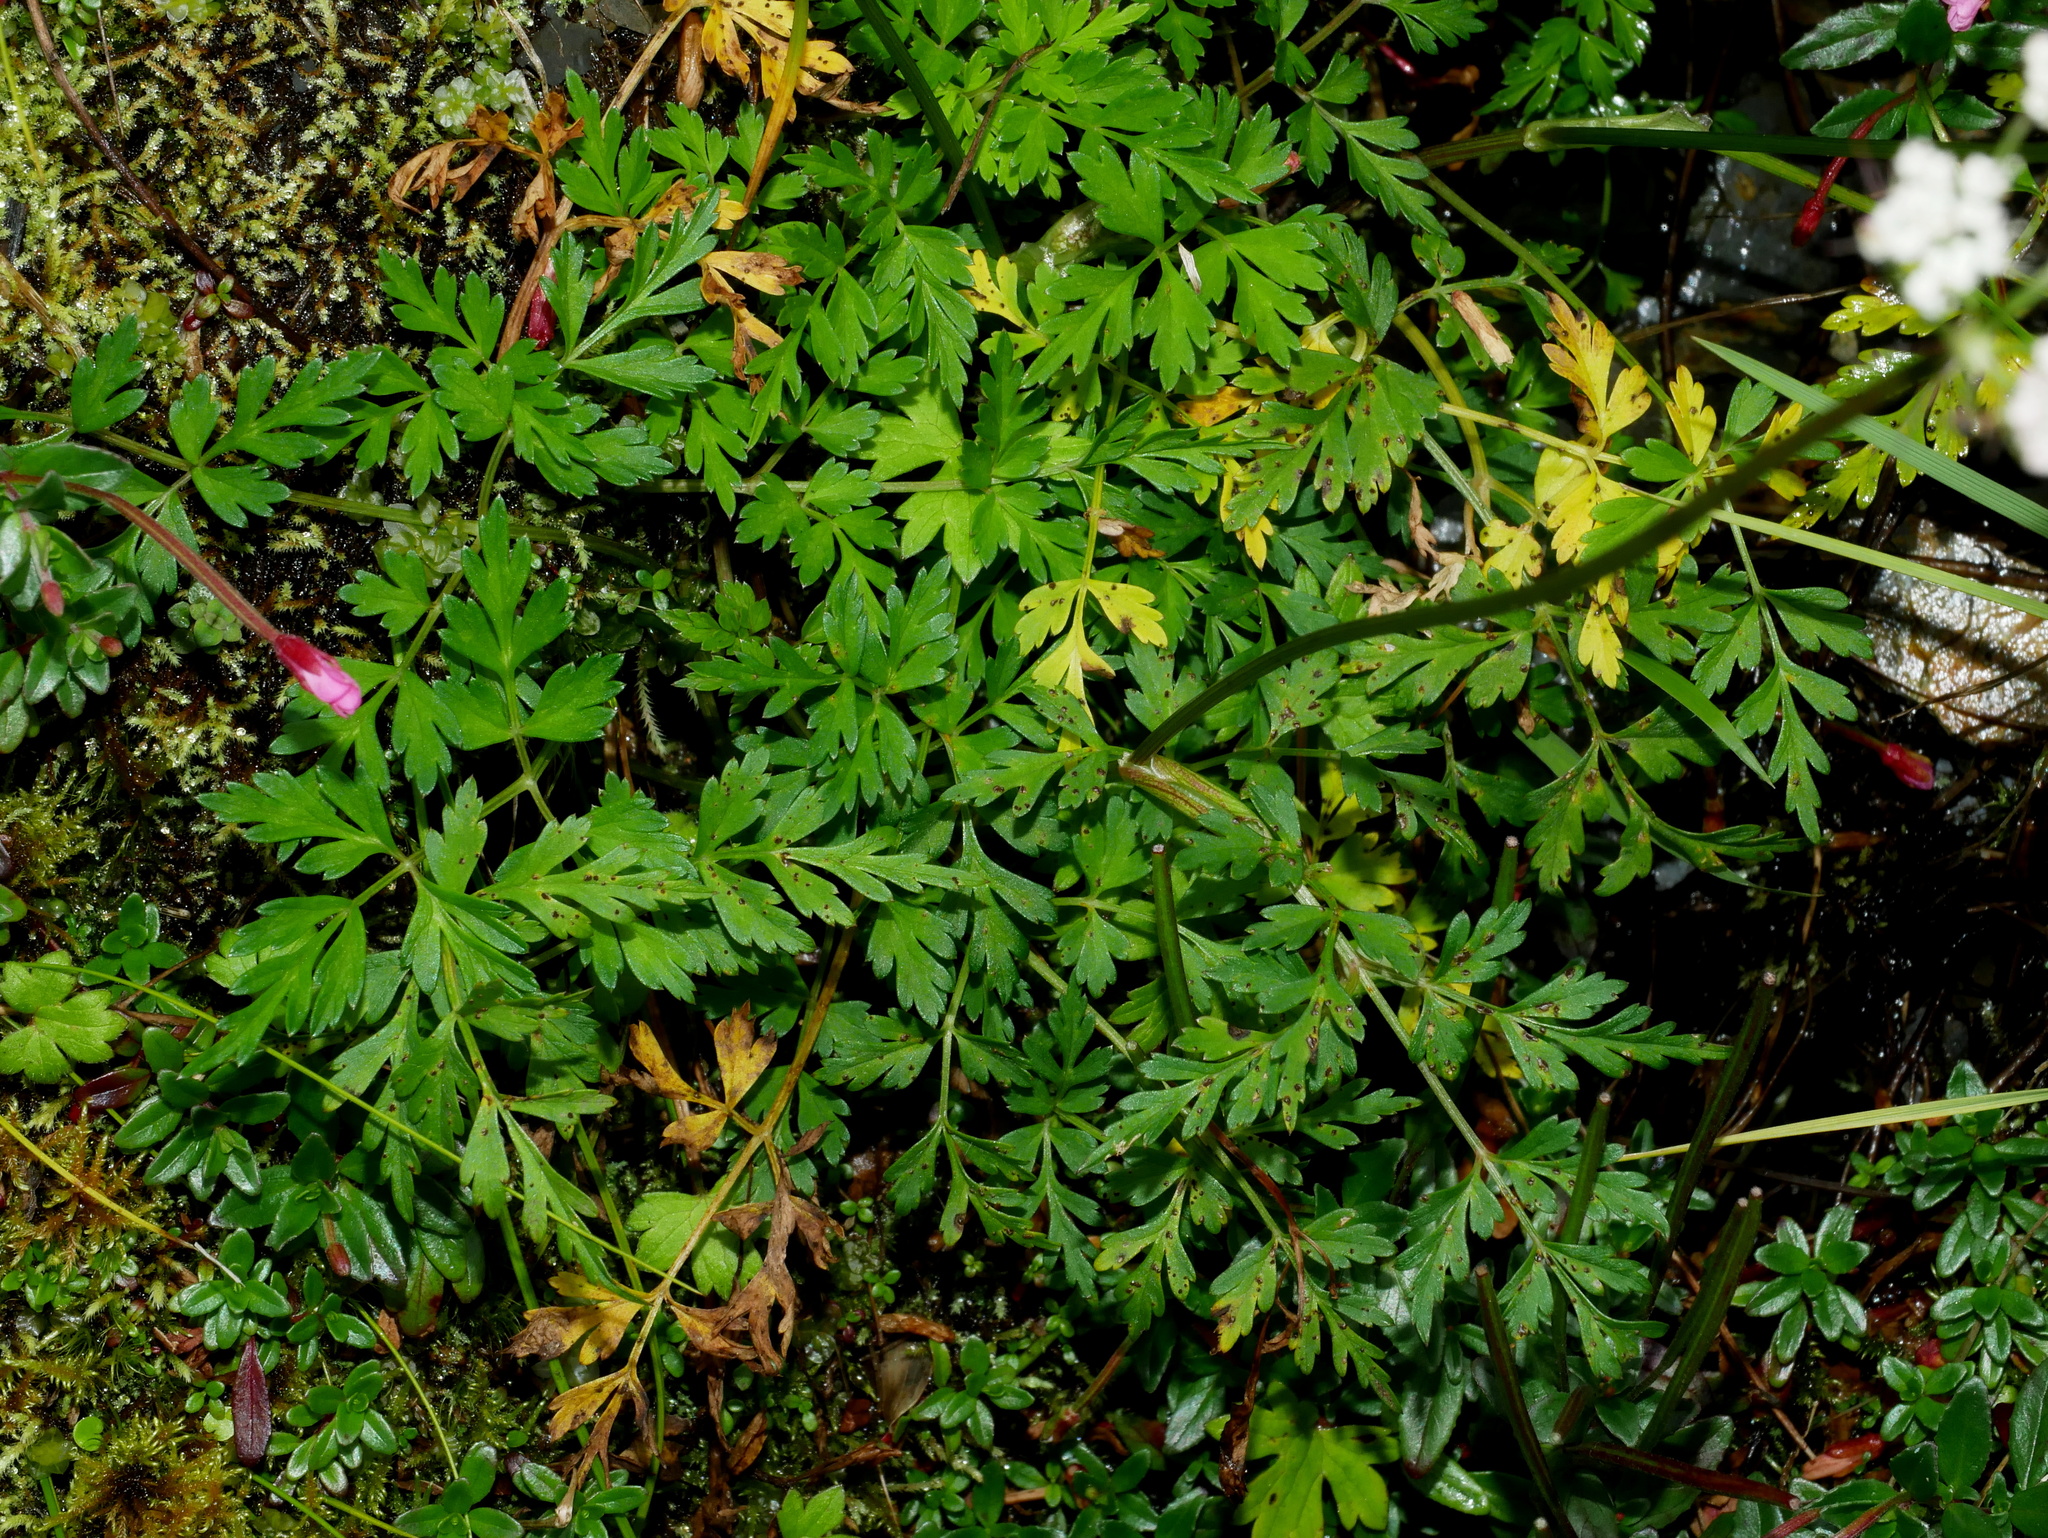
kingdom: Plantae
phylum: Tracheophyta
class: Magnoliopsida
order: Apiales
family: Apiaceae
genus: Conioselinum
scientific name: Conioselinum morrisonense
